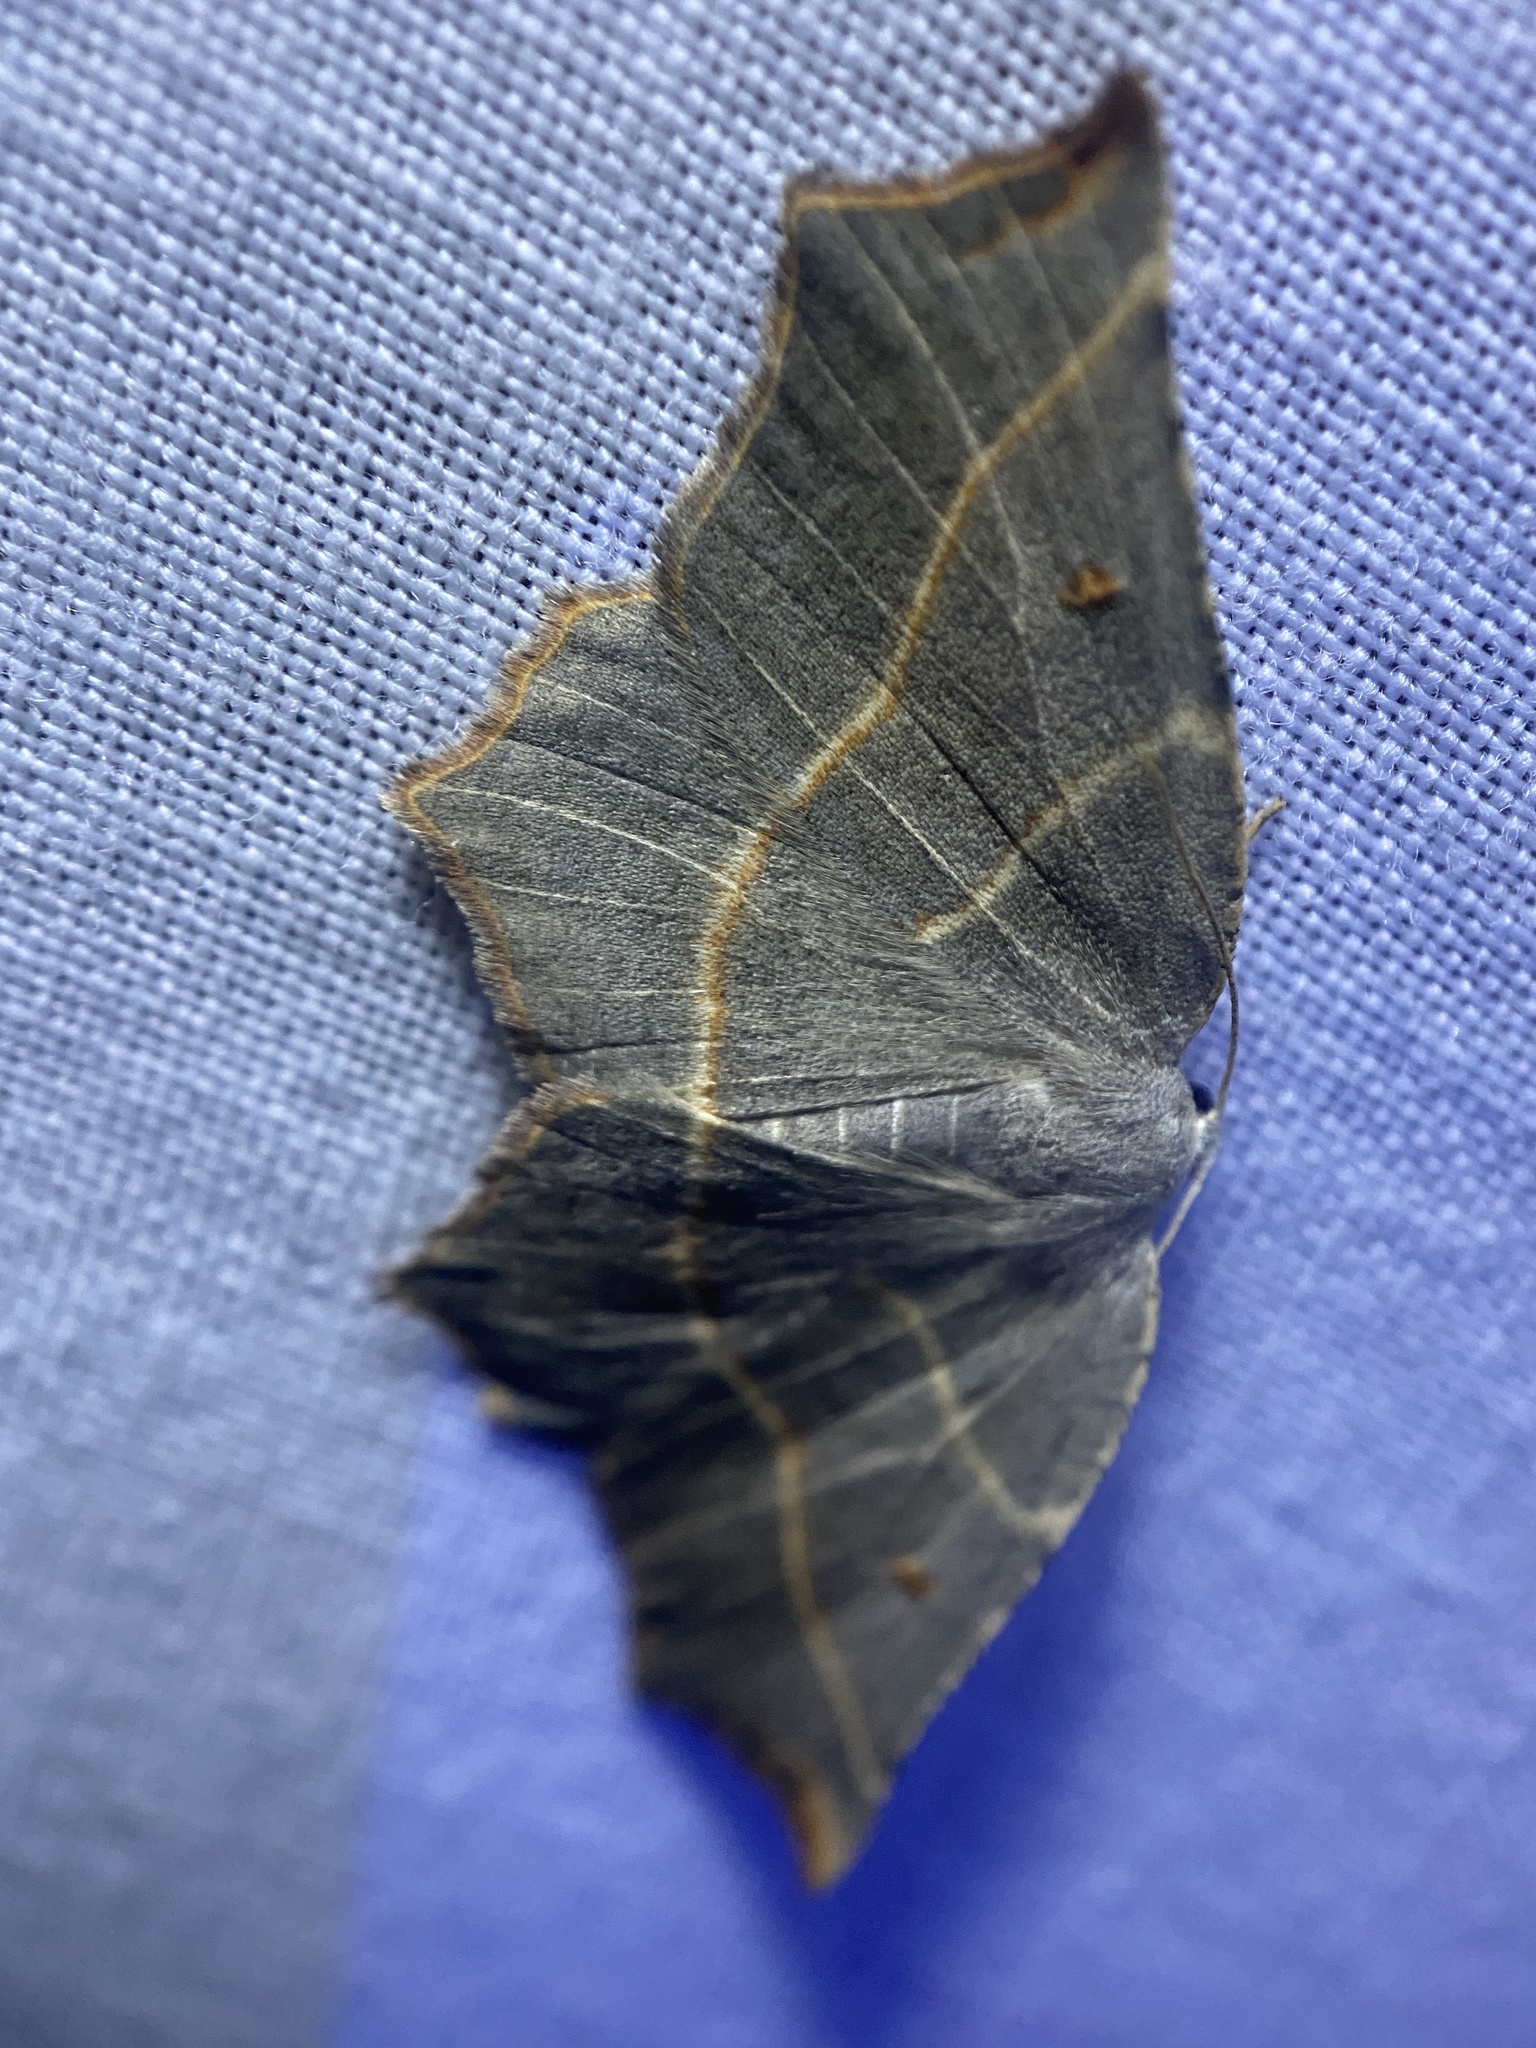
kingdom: Animalia
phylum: Arthropoda
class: Insecta
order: Lepidoptera
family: Geometridae
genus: Metanema
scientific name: Metanema inatomaria
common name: Pale metanema
